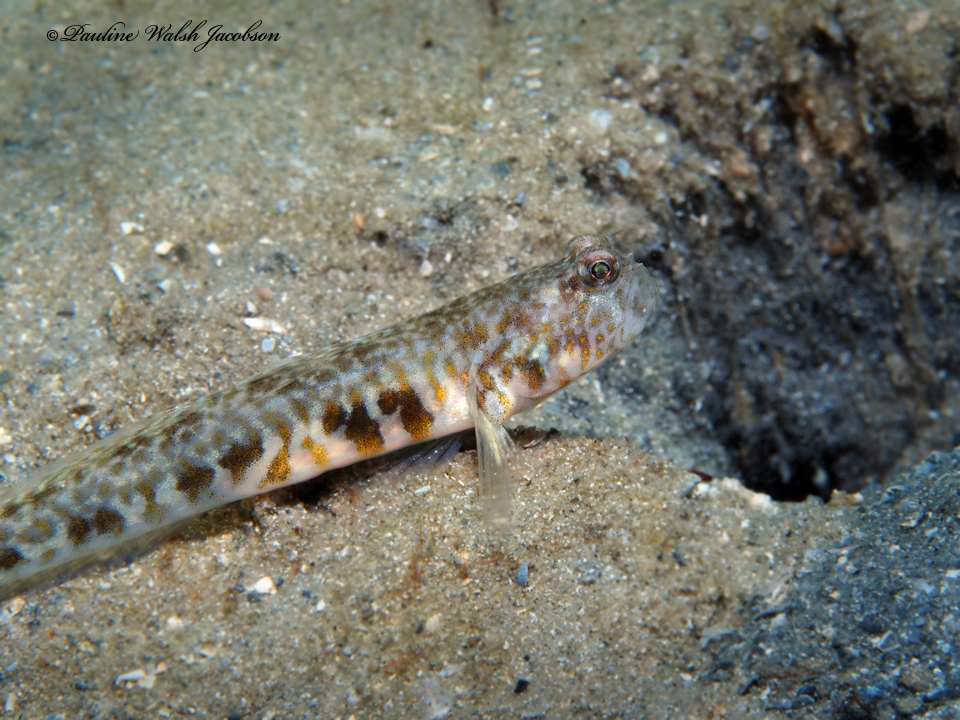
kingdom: Animalia
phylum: Chordata
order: Perciformes
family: Gobiidae
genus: Nes
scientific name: Nes longus
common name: Orangespotted goby
